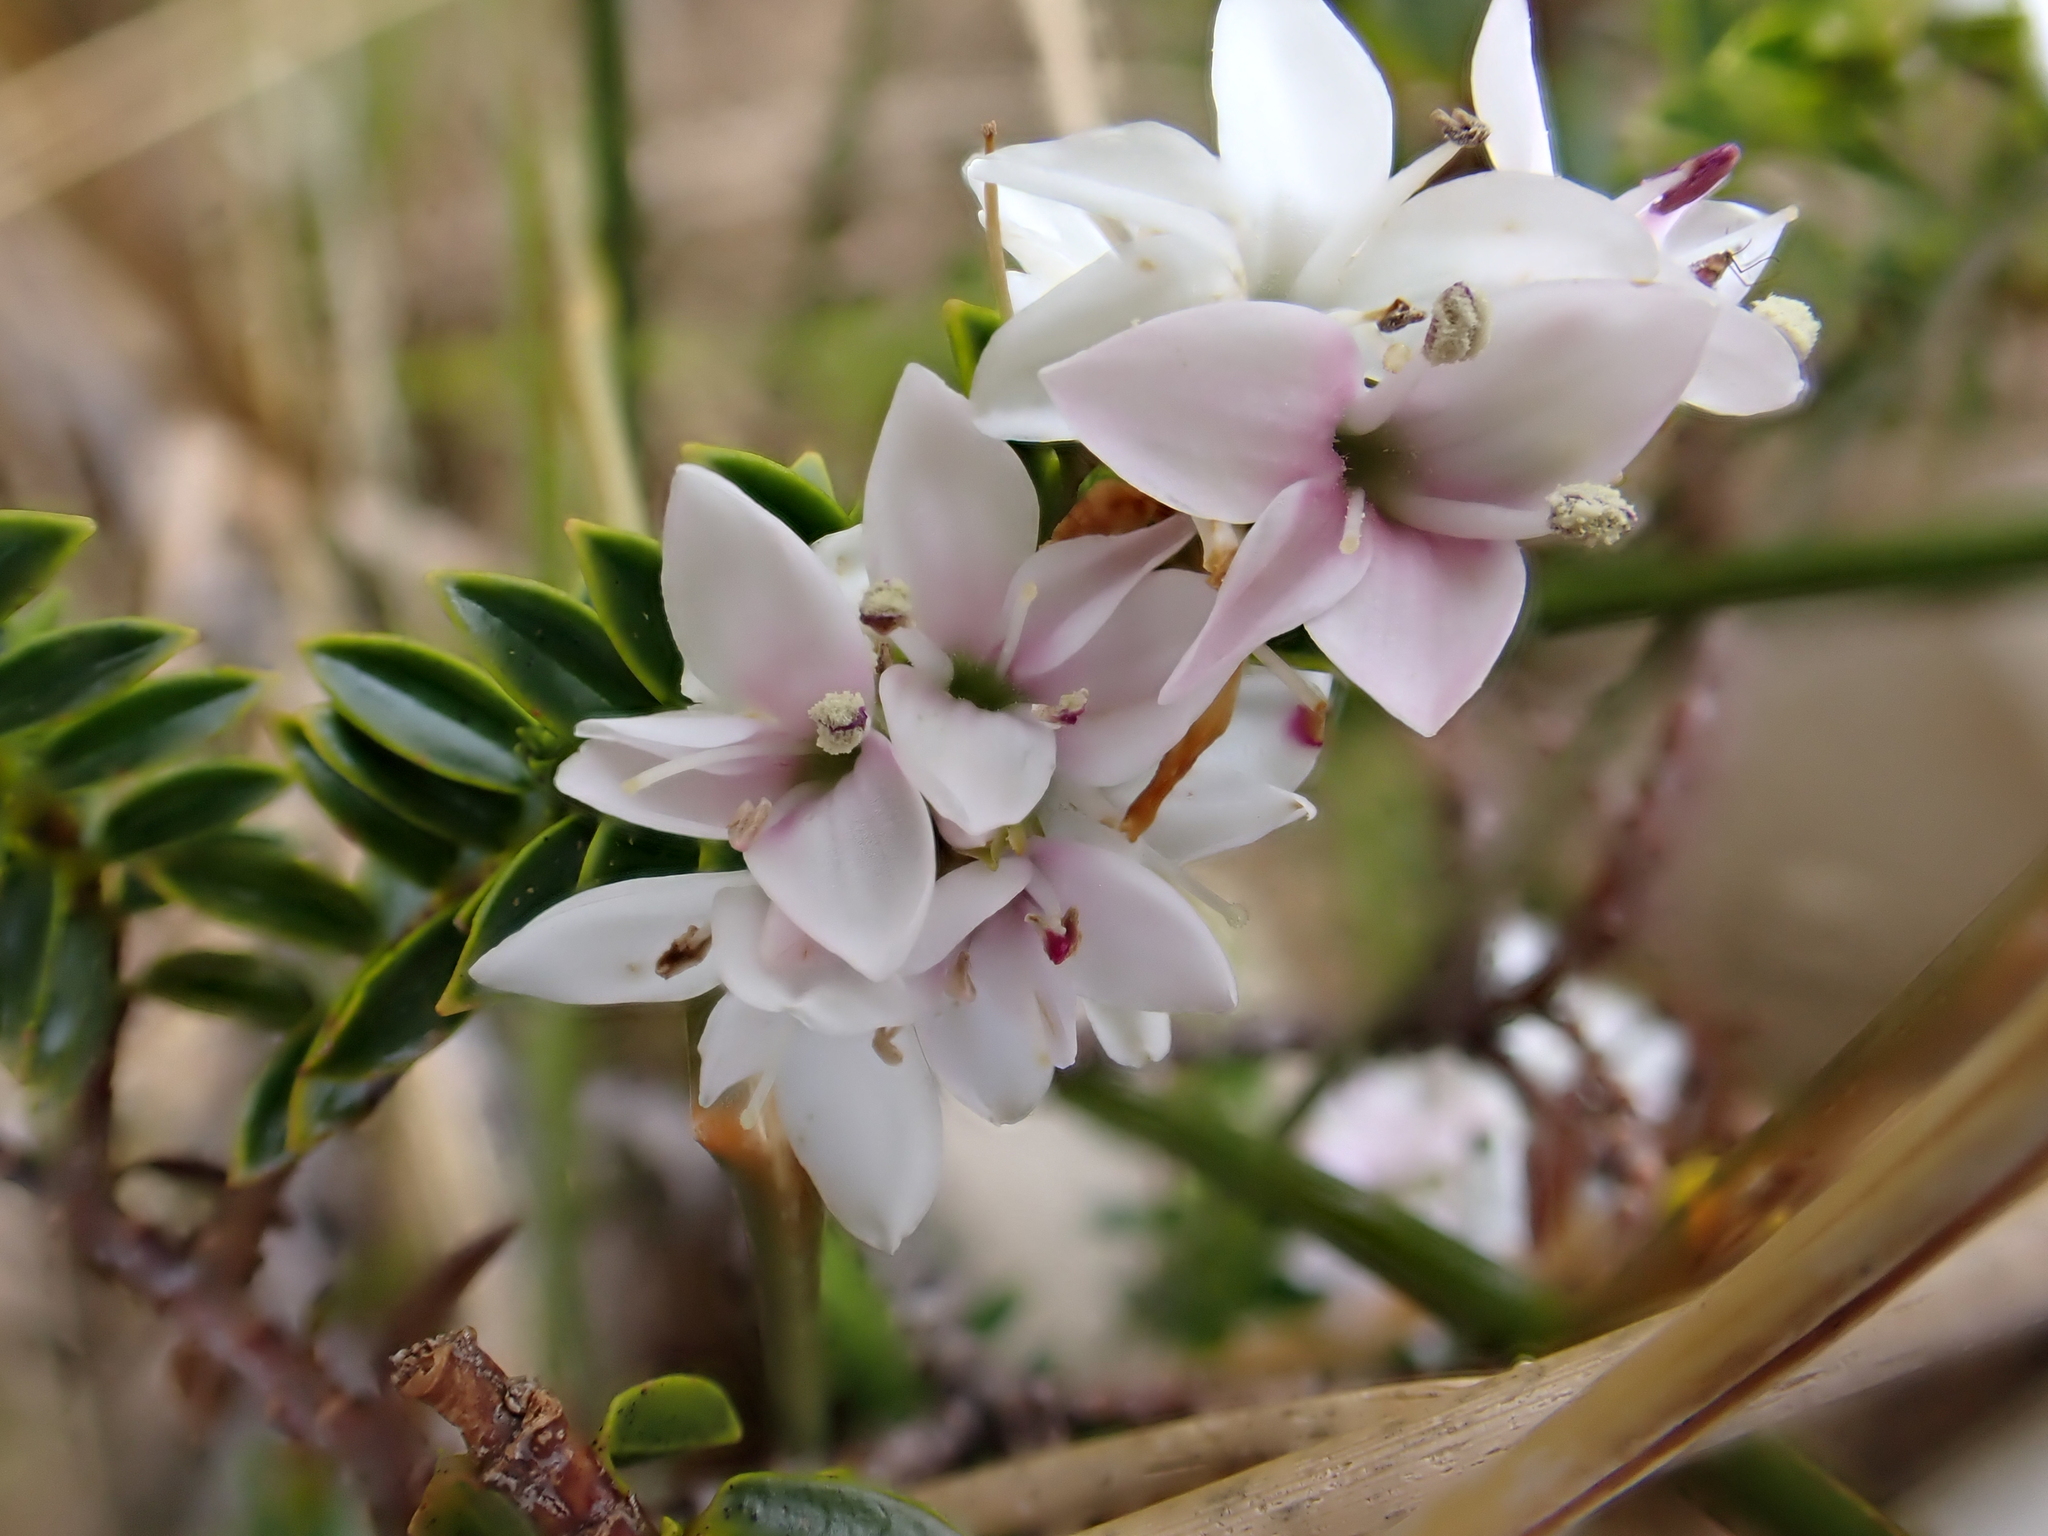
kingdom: Plantae
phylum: Tracheophyta
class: Magnoliopsida
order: Lamiales
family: Plantaginaceae
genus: Veronica
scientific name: Veronica odora
